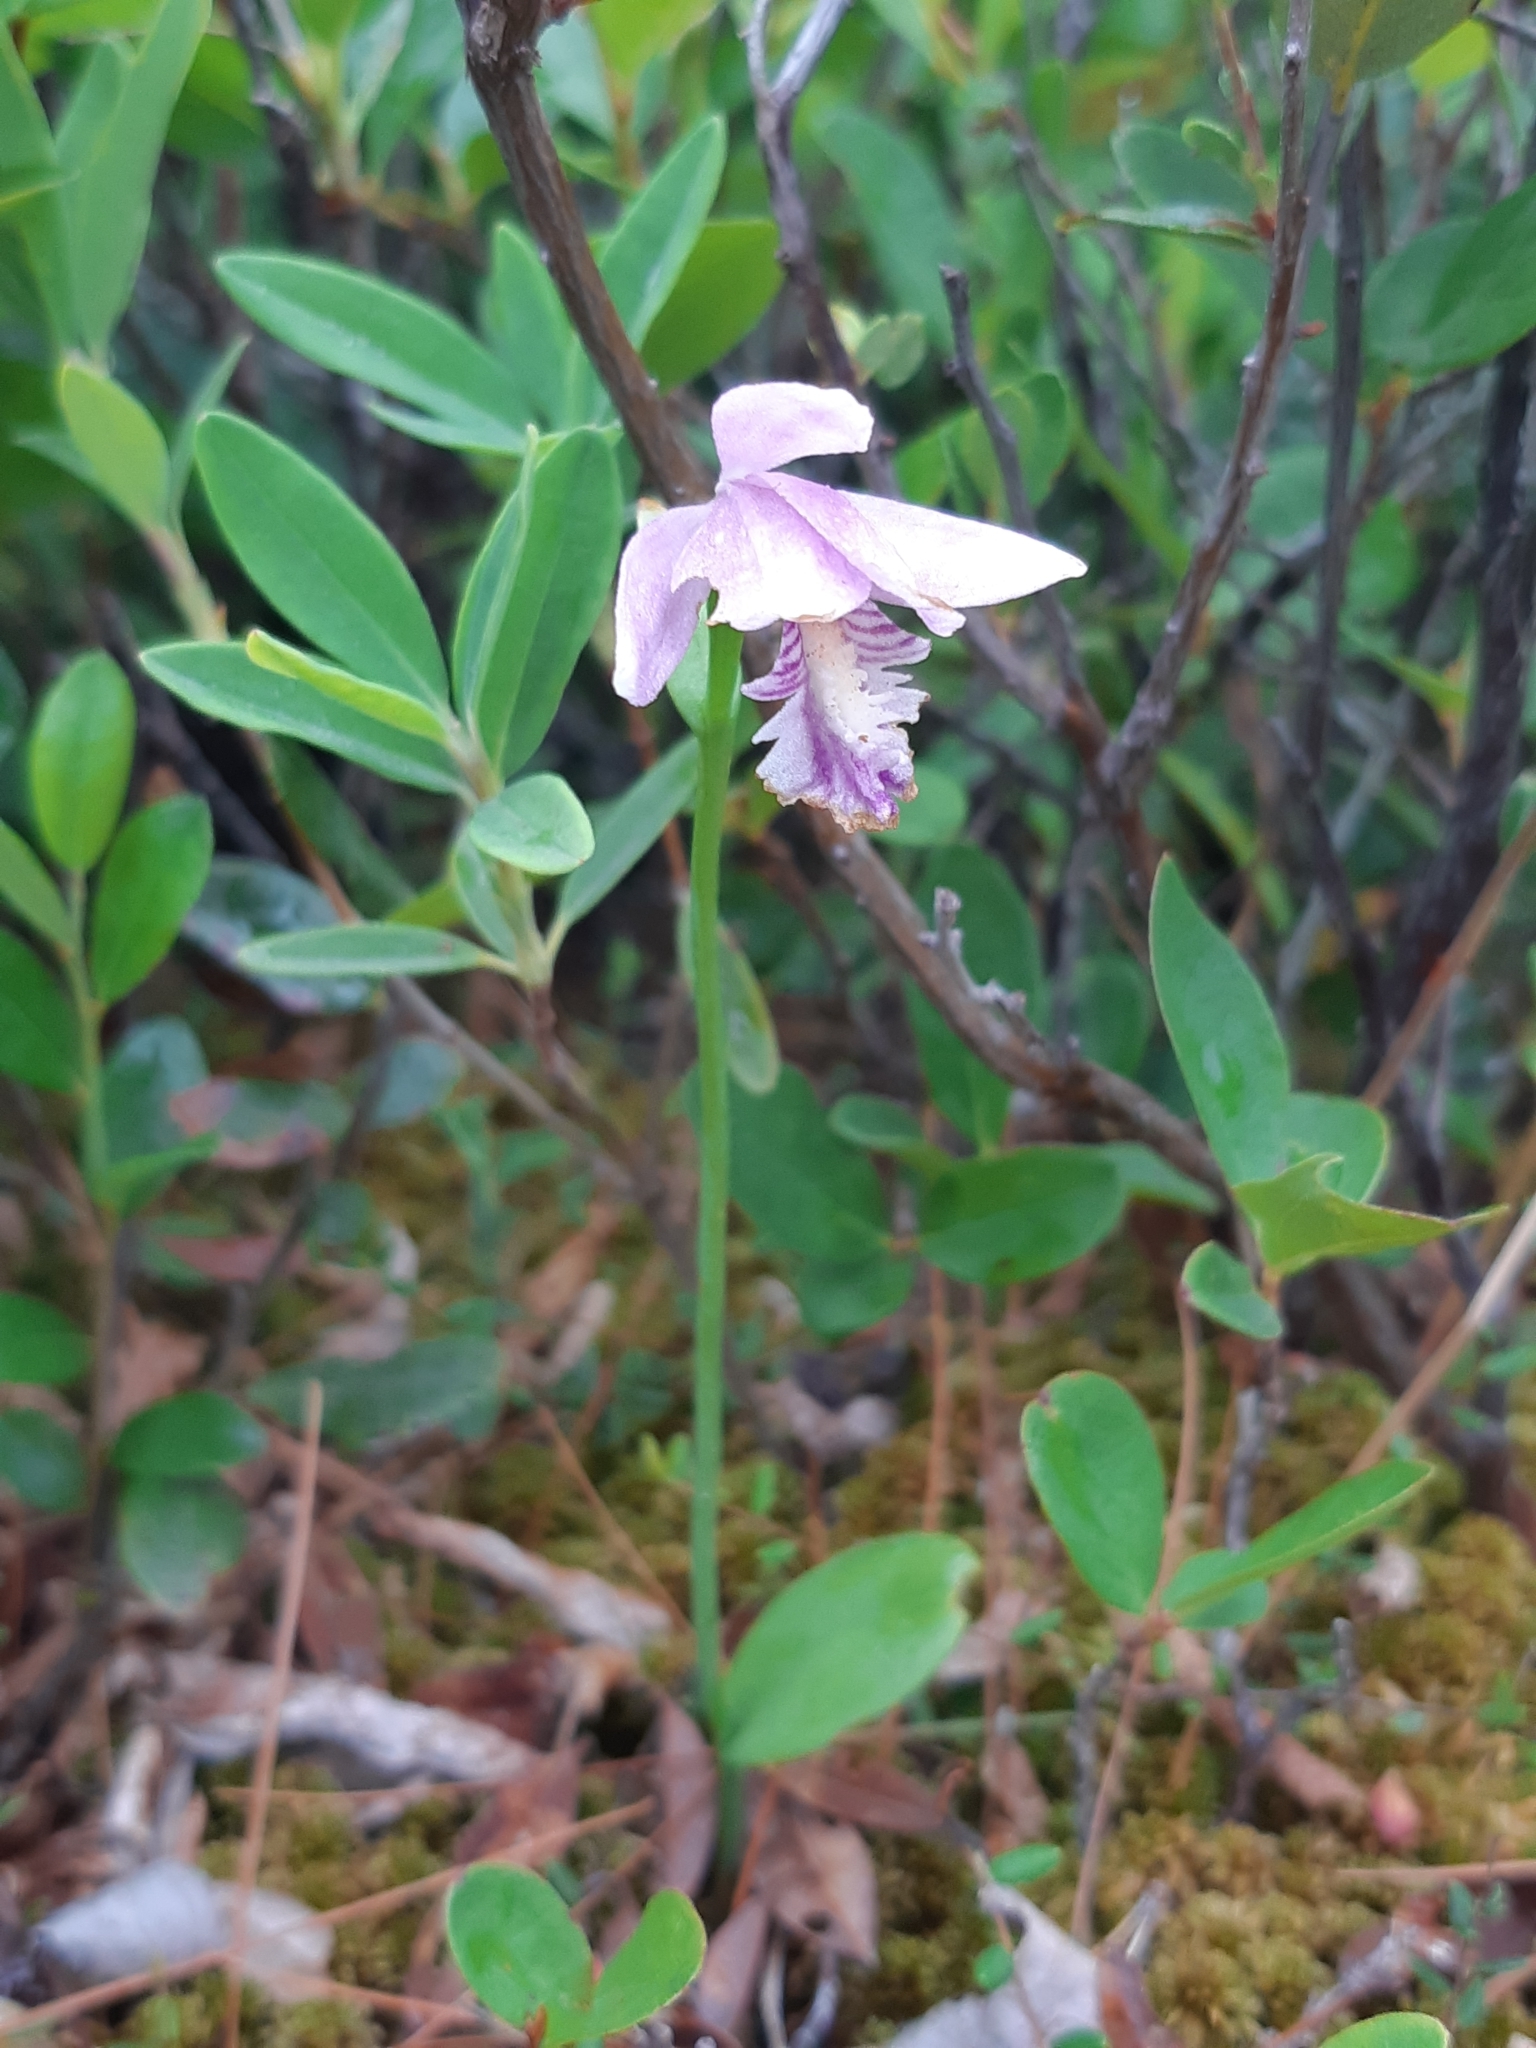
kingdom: Plantae
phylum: Tracheophyta
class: Liliopsida
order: Asparagales
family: Orchidaceae
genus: Pogonia
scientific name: Pogonia ophioglossoides
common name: Rose pogonia
